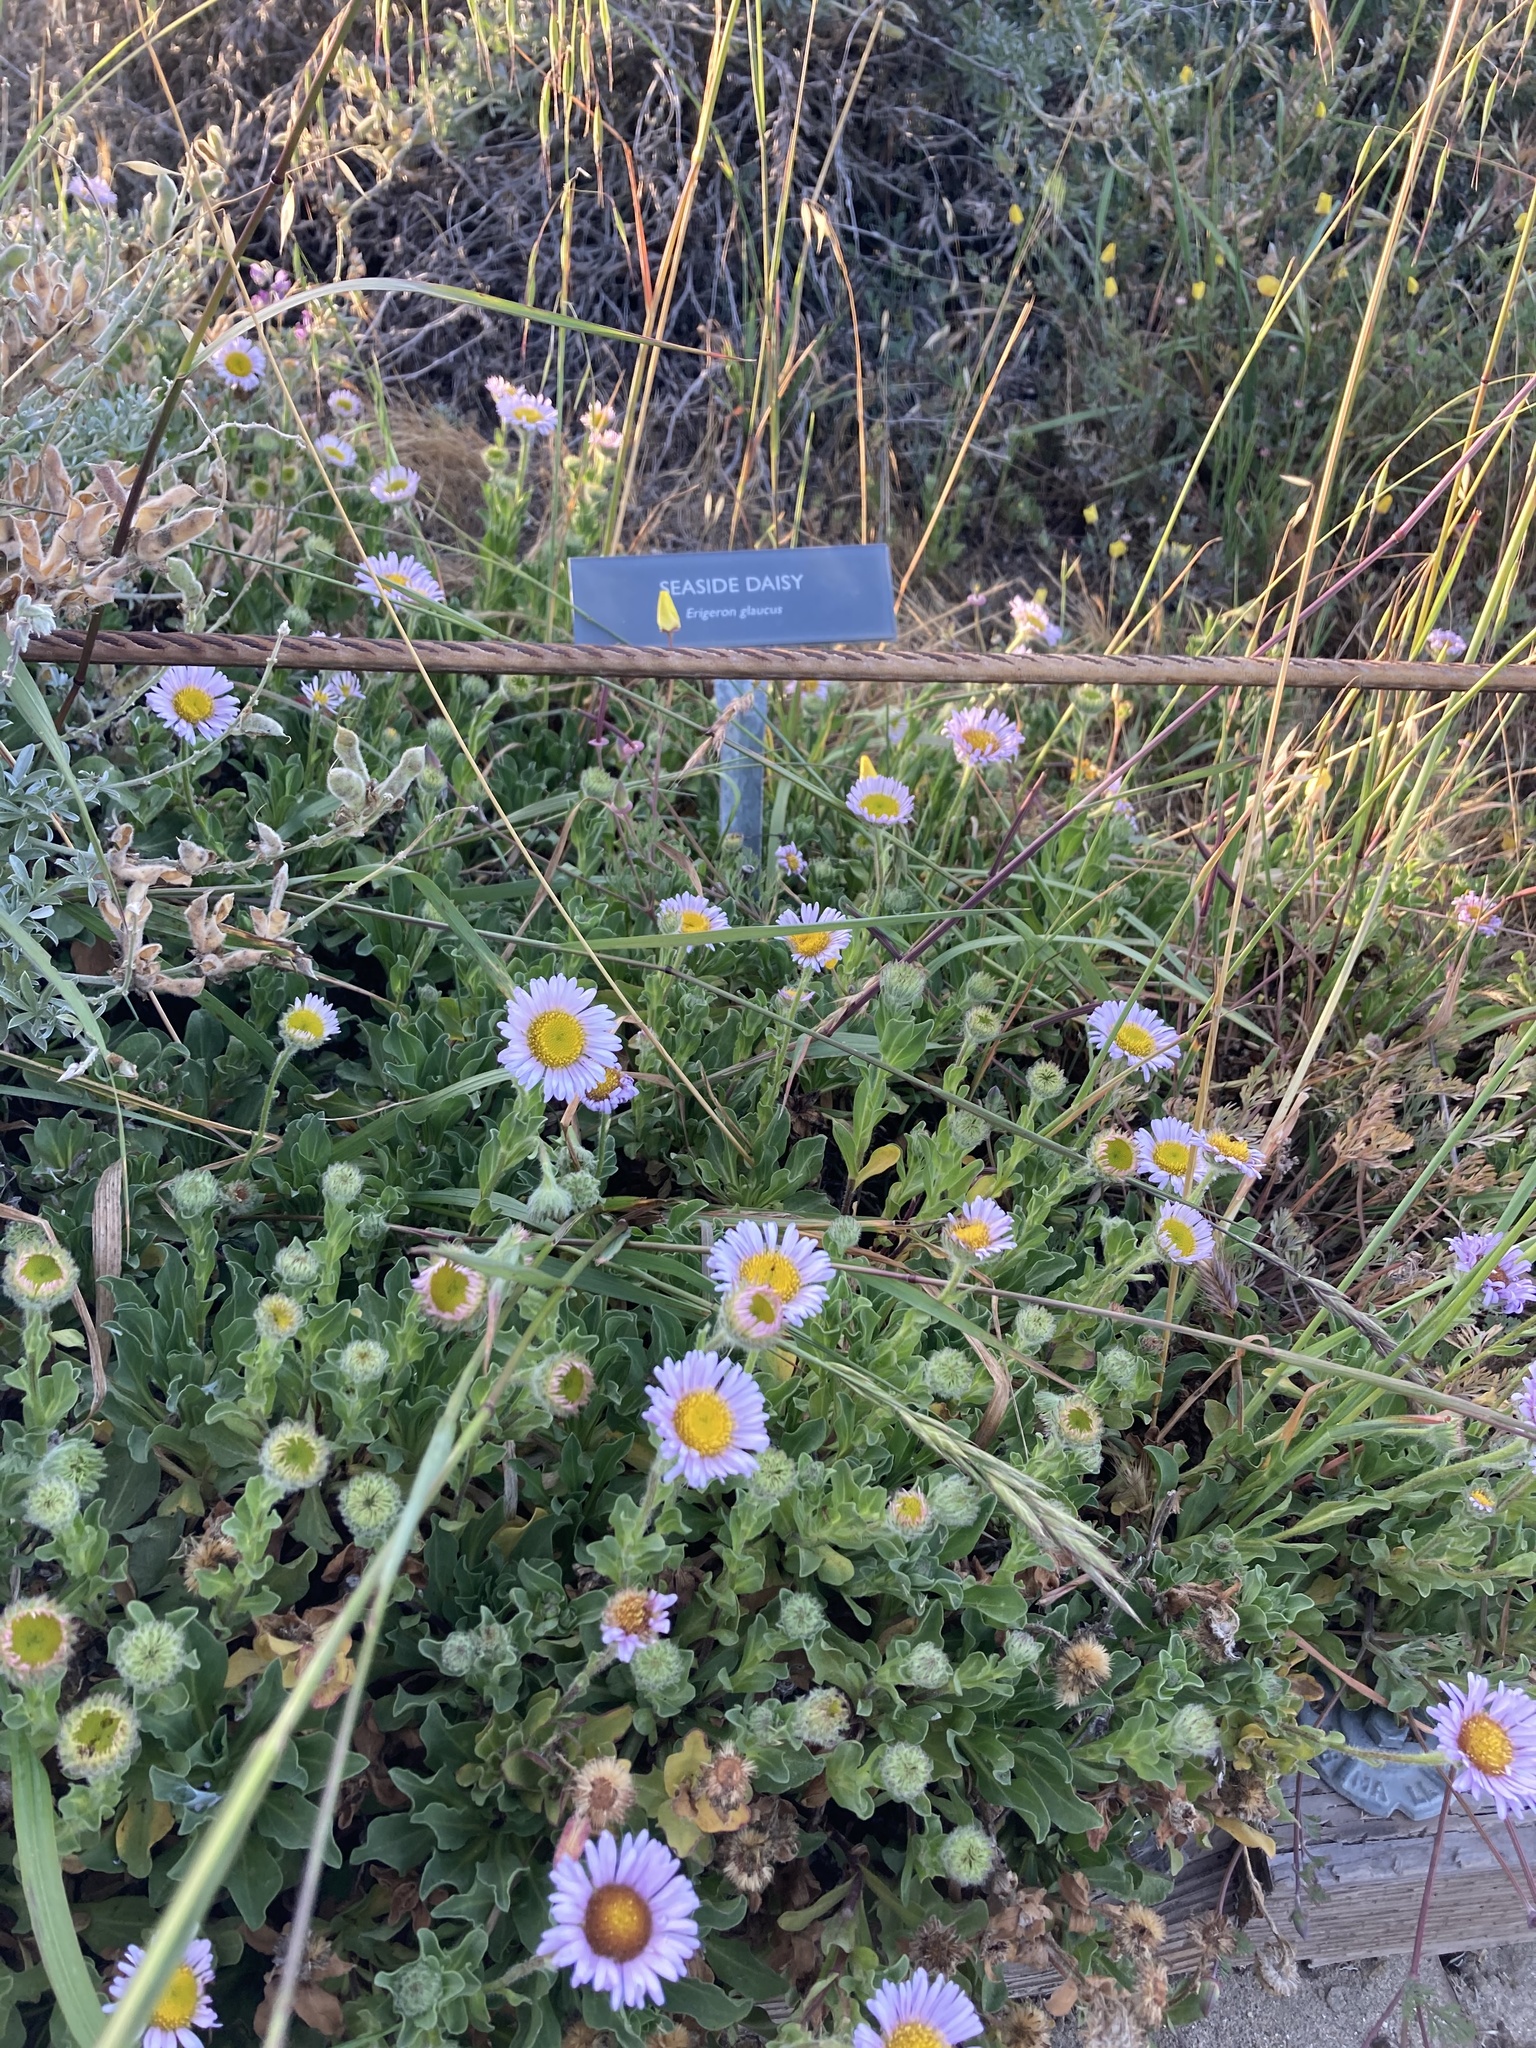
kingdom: Plantae
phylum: Tracheophyta
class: Magnoliopsida
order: Asterales
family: Asteraceae
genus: Erigeron
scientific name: Erigeron glaucus
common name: Seaside daisy
